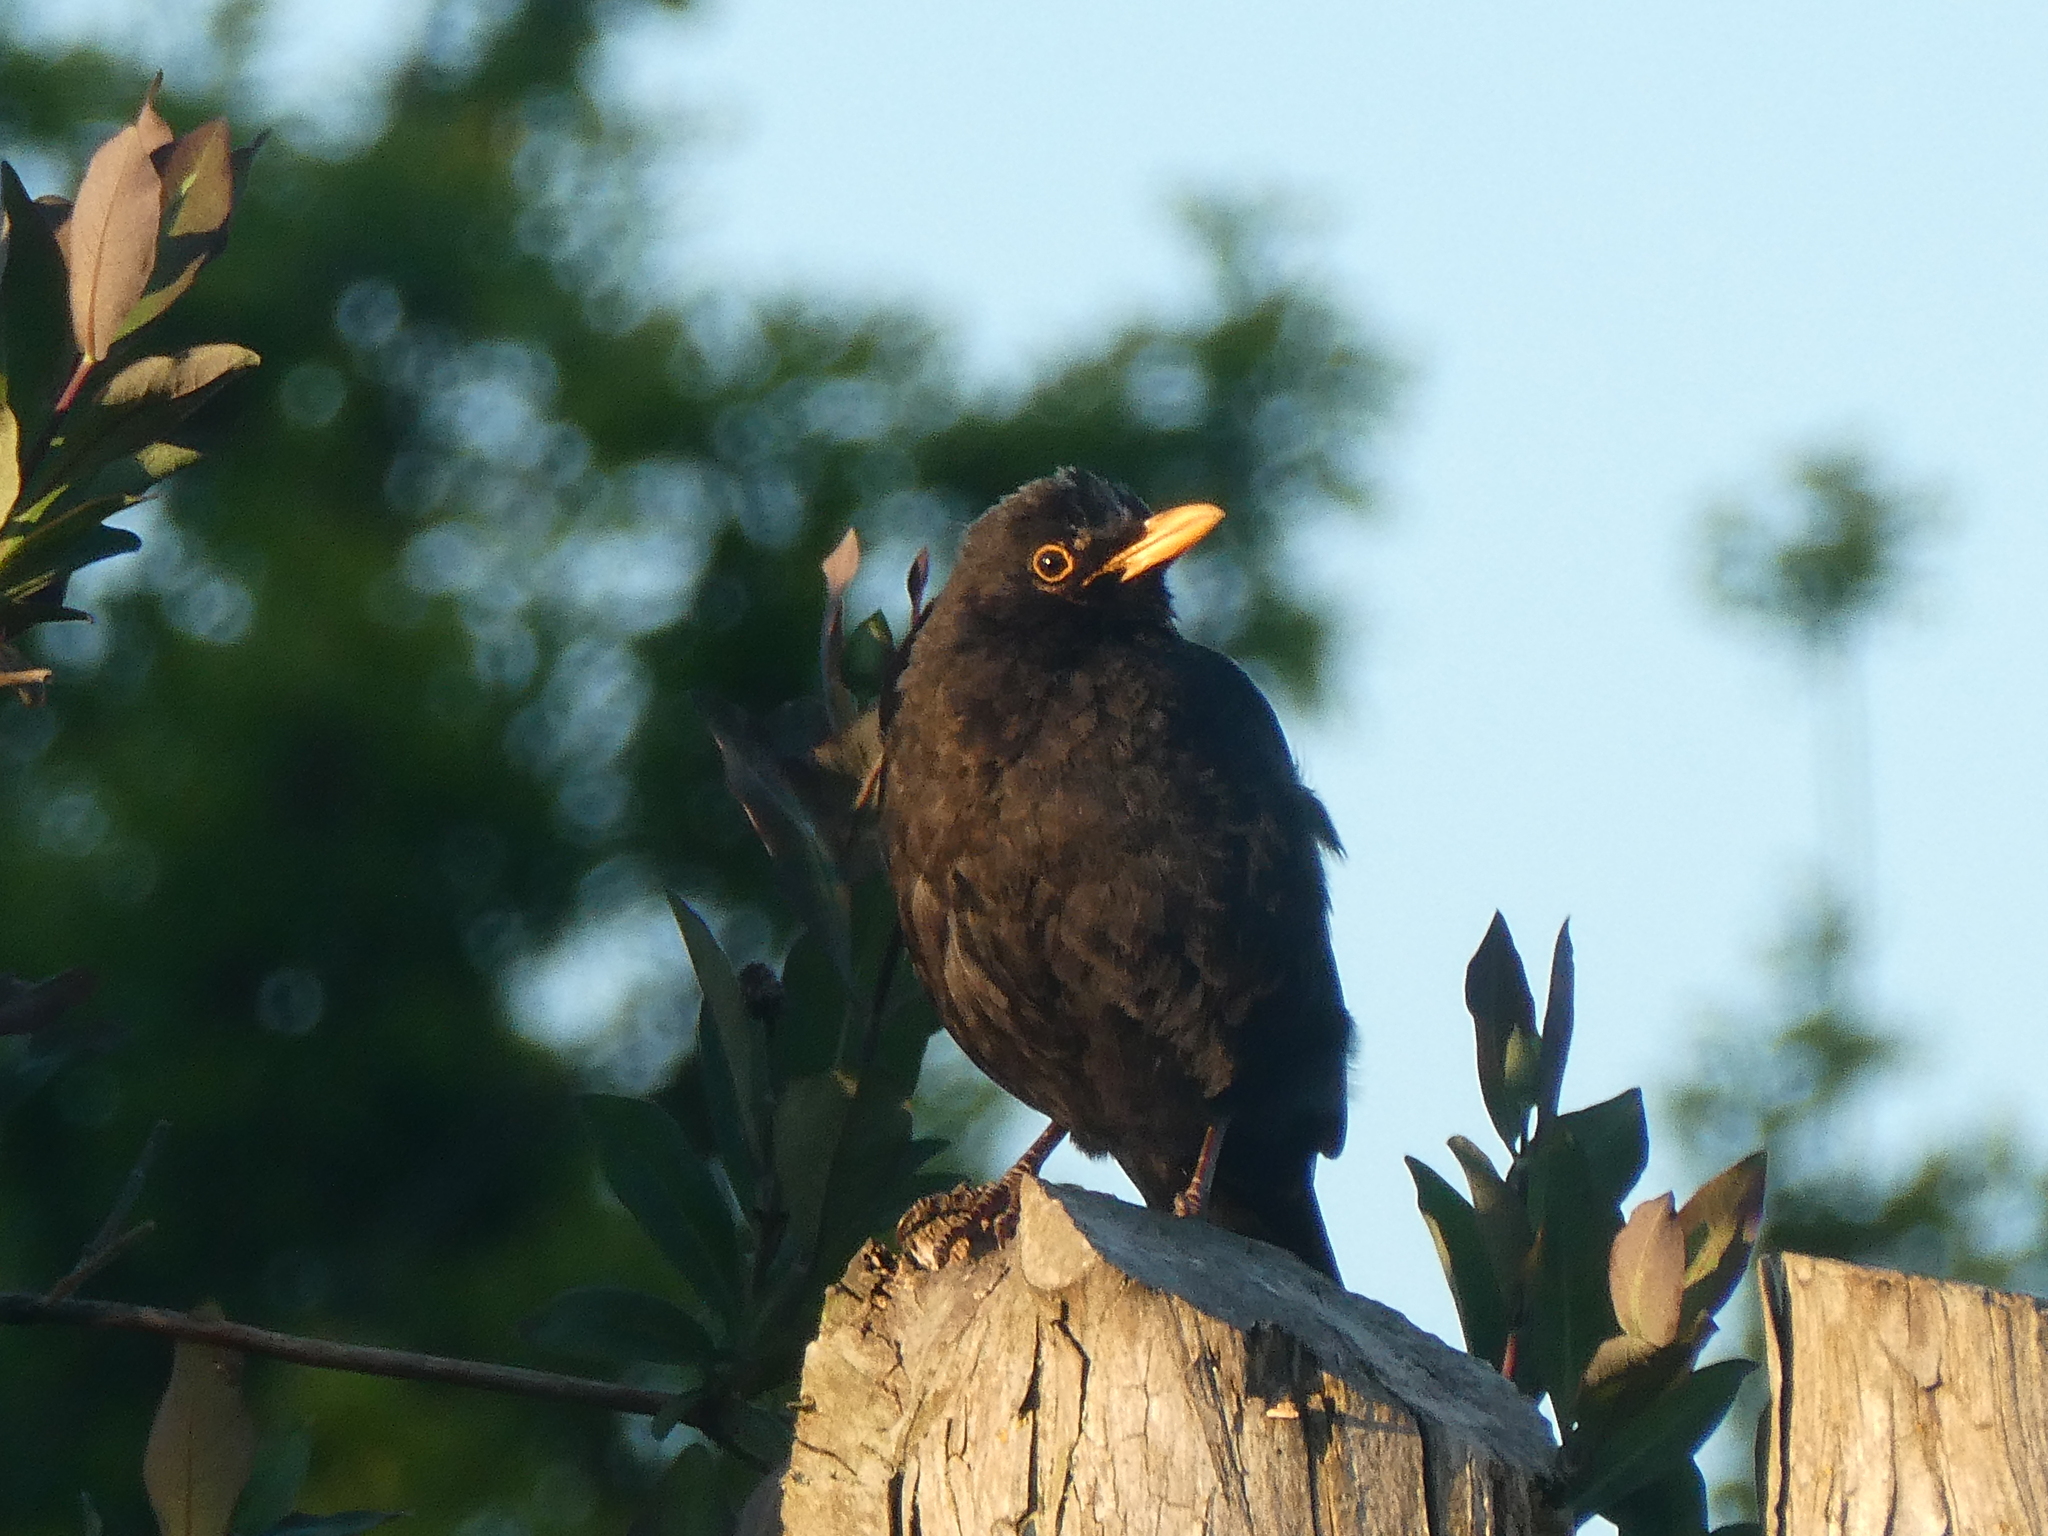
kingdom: Animalia
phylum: Chordata
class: Aves
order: Passeriformes
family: Turdidae
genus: Turdus
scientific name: Turdus merula
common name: Common blackbird
